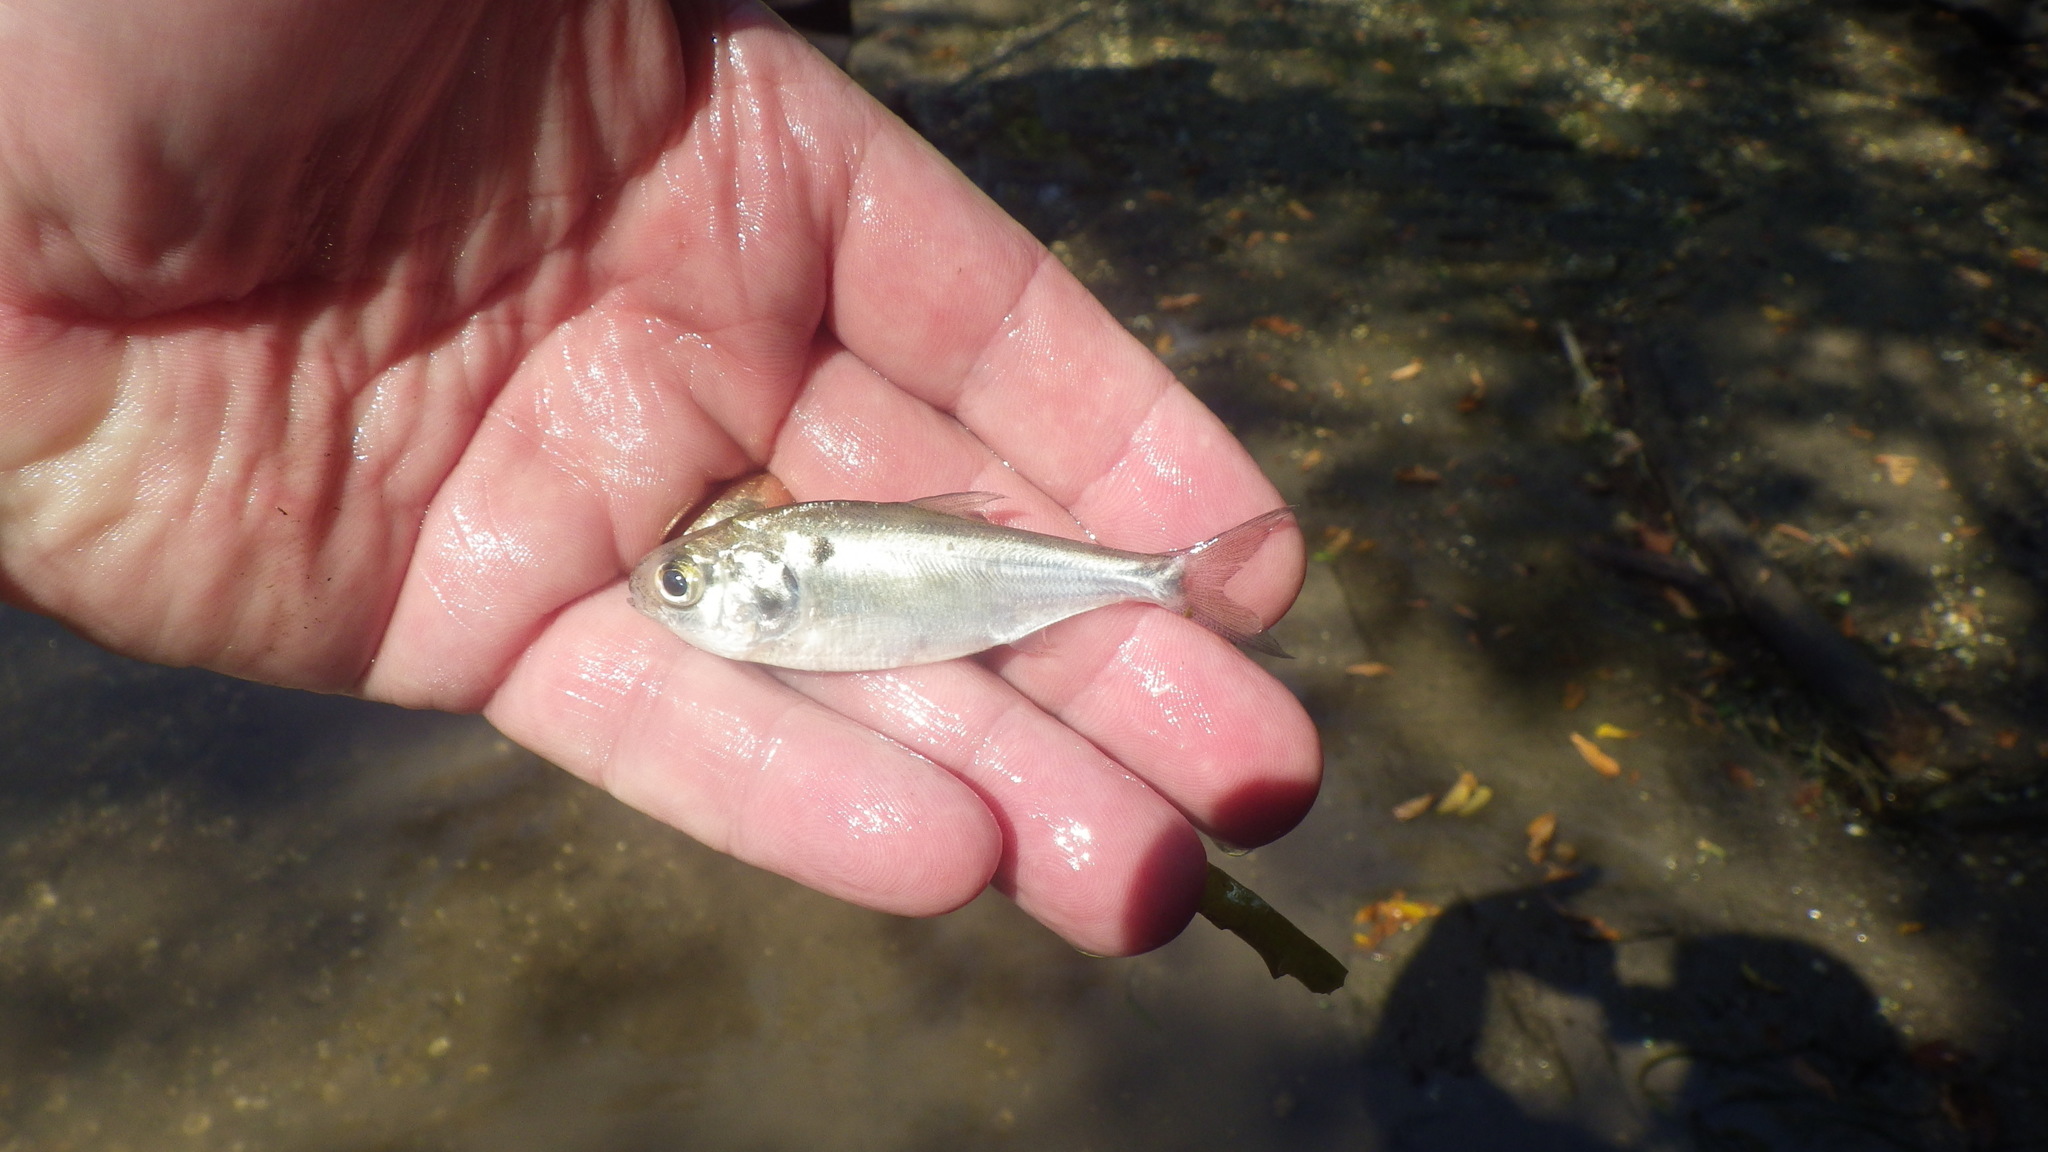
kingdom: Animalia
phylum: Chordata
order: Clupeiformes
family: Clupeidae
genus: Dorosoma
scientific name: Dorosoma cepedianum
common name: Gizzard shad
